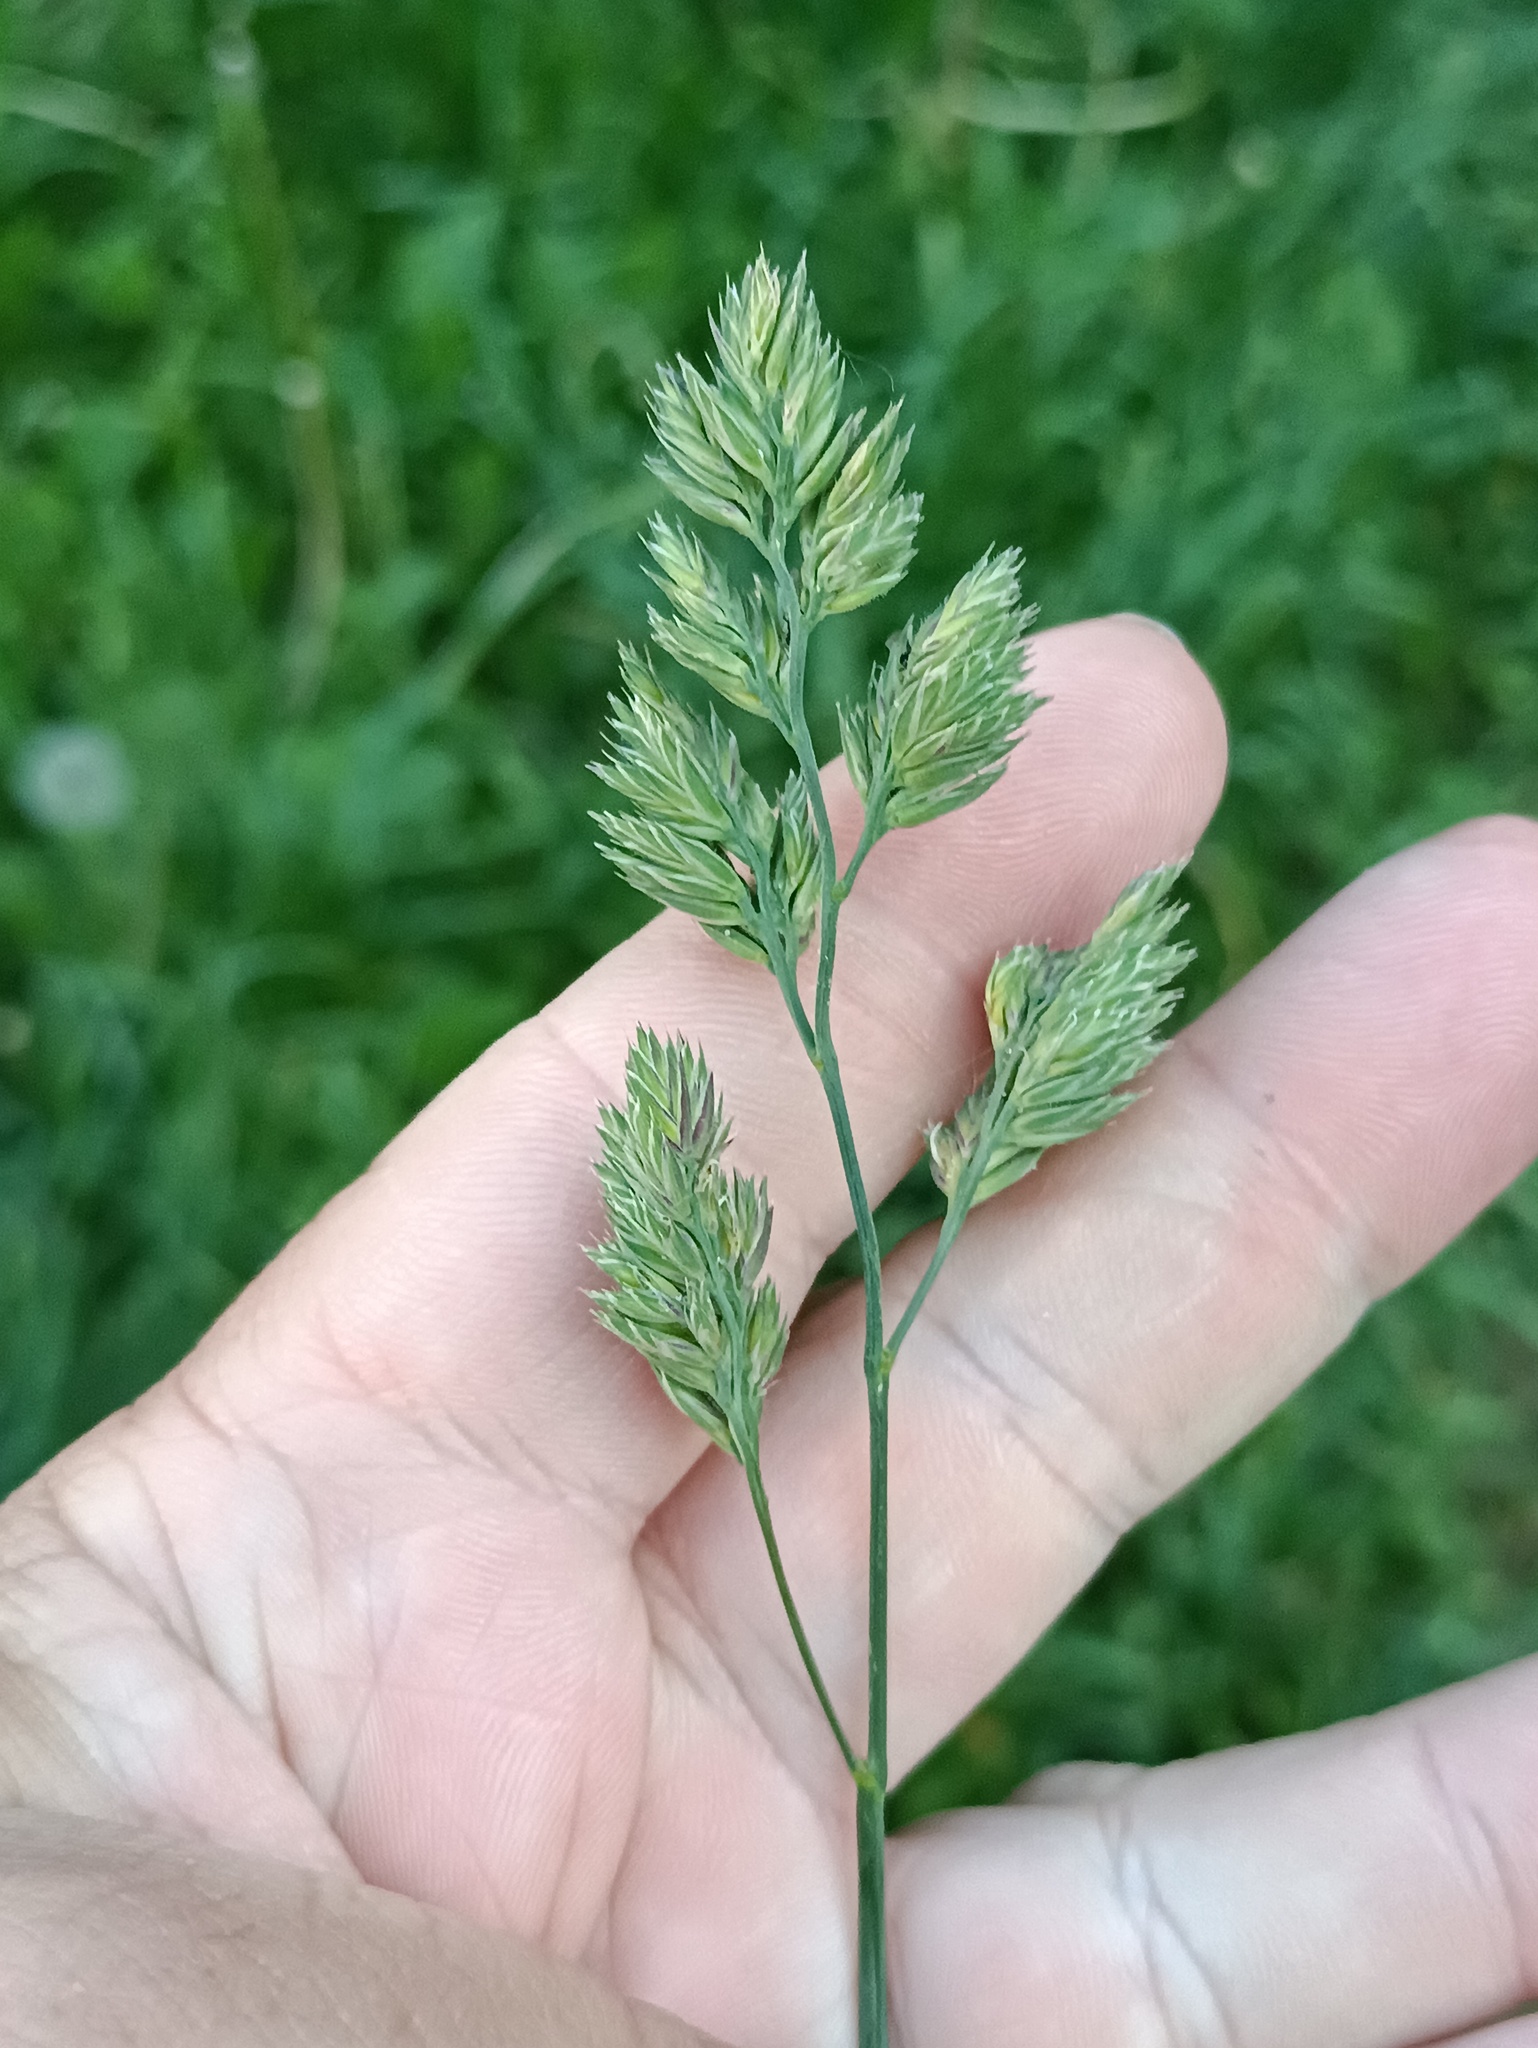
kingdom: Plantae
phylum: Tracheophyta
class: Liliopsida
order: Poales
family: Poaceae
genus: Dactylis
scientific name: Dactylis glomerata
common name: Orchardgrass
